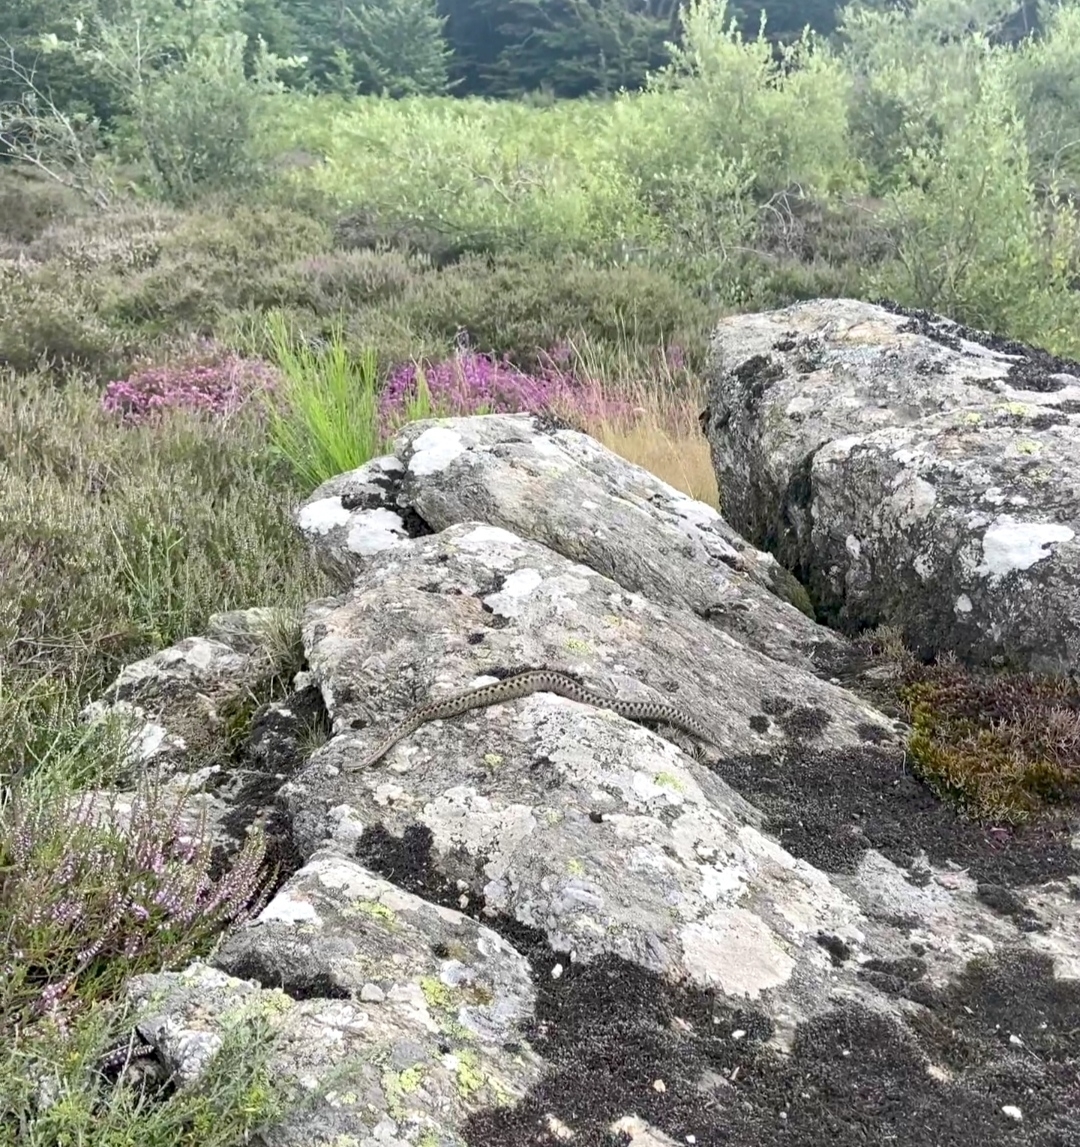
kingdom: Animalia
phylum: Chordata
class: Squamata
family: Viperidae
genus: Vipera
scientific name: Vipera aspis
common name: Asp viper
